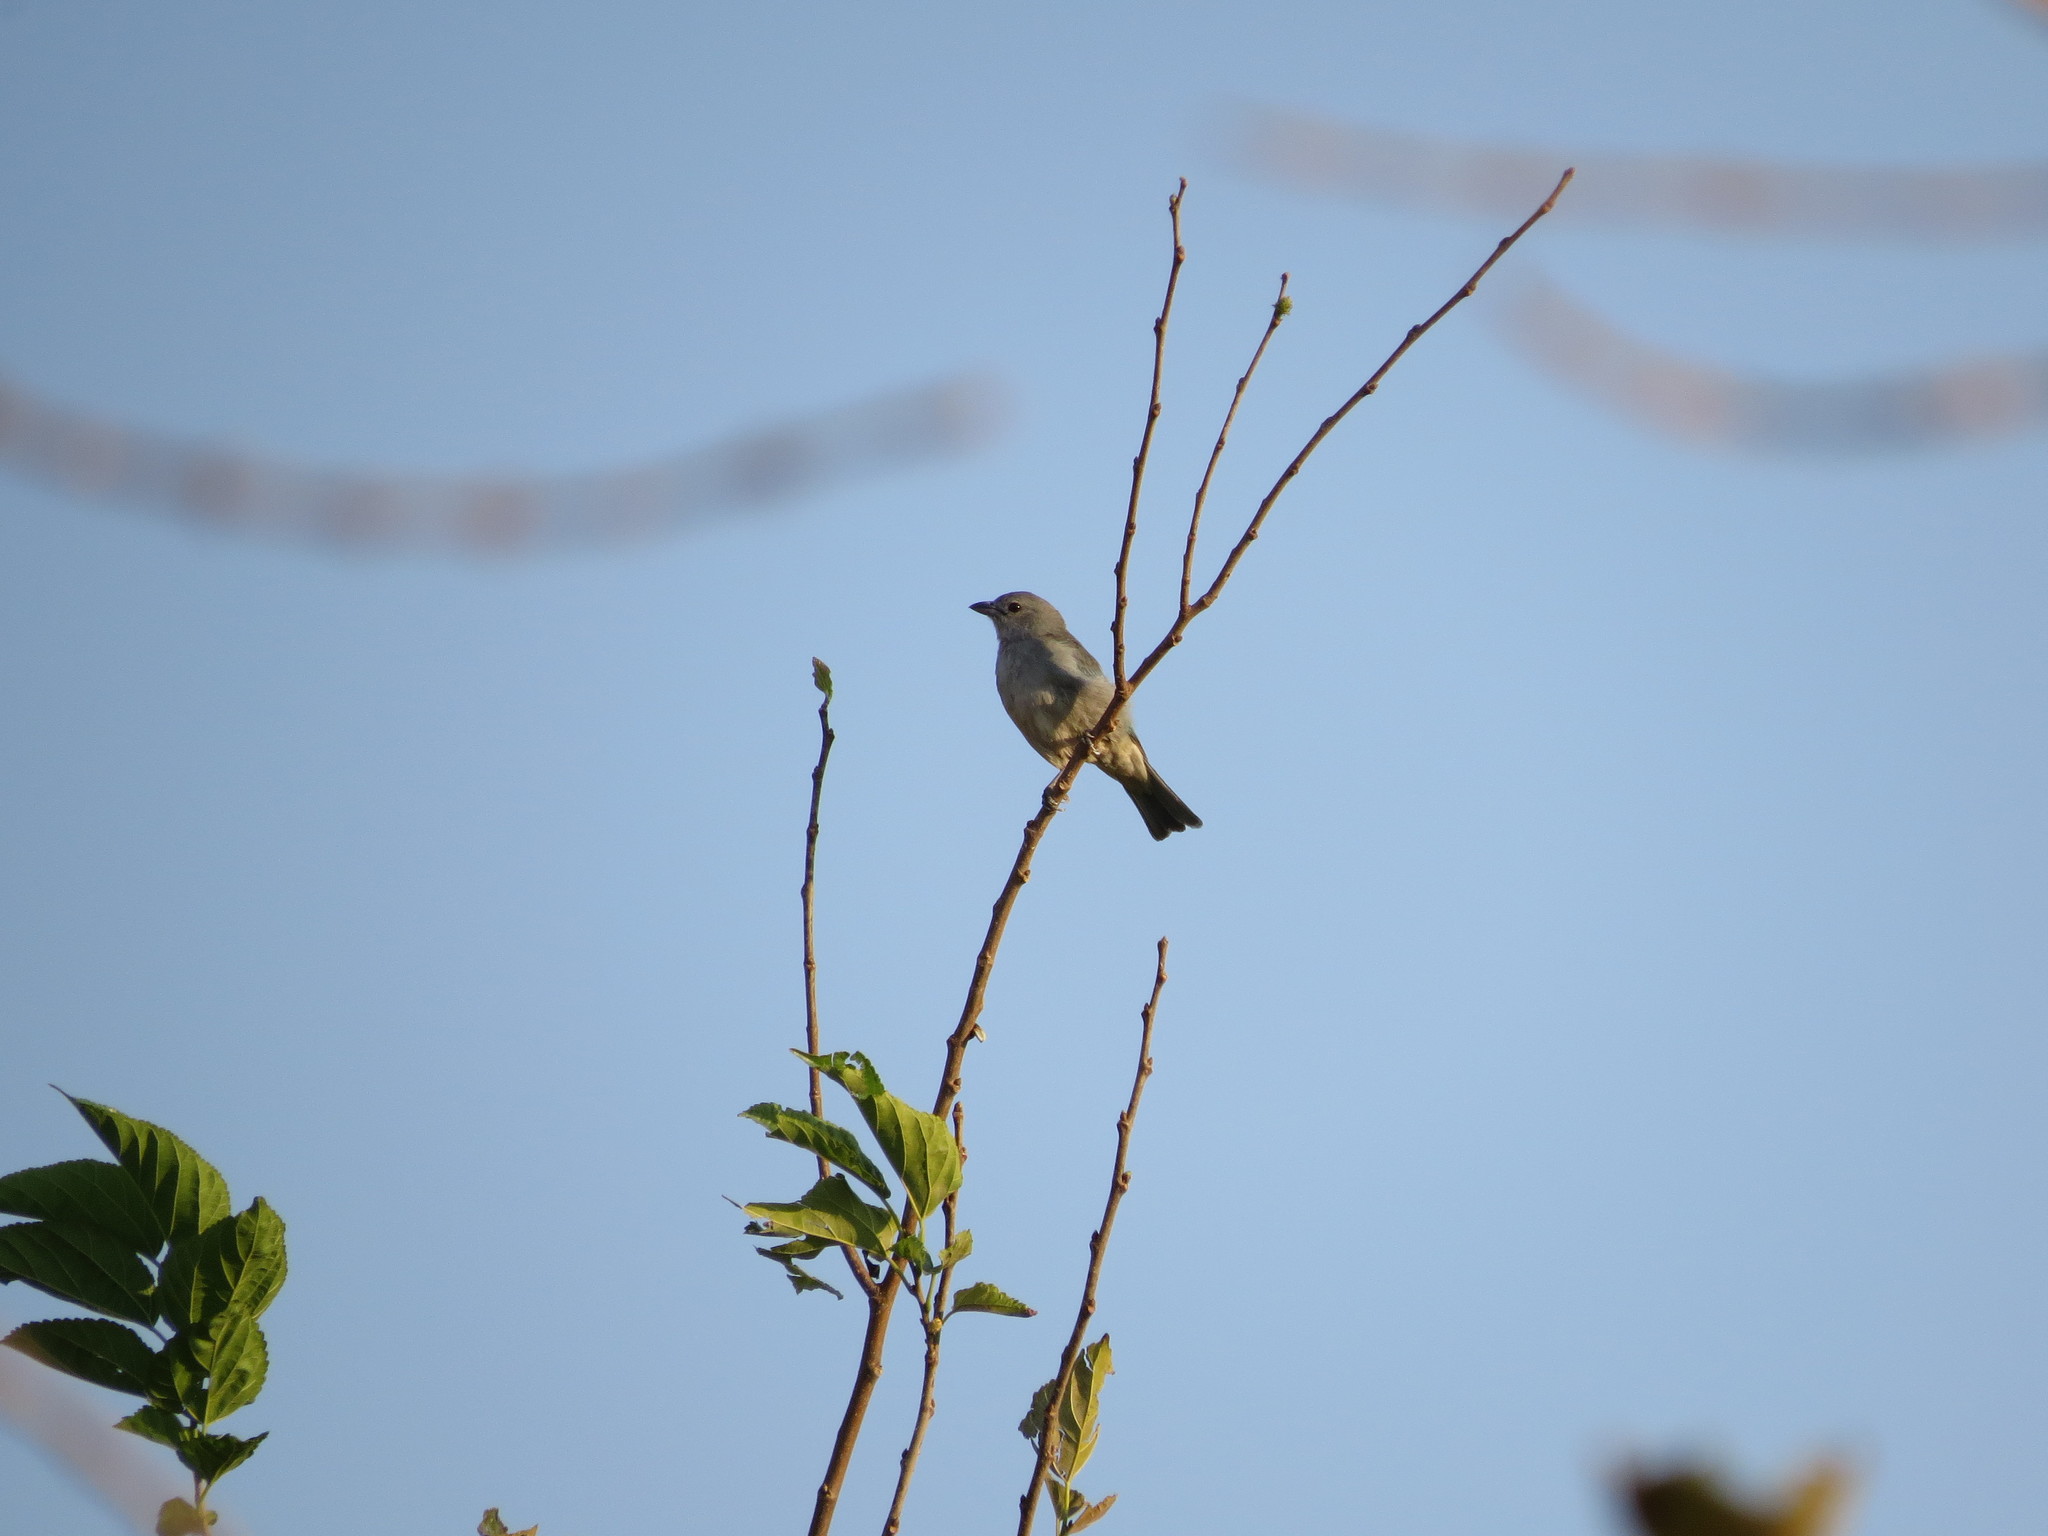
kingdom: Animalia
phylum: Chordata
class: Aves
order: Passeriformes
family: Thraupidae
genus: Thraupis
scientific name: Thraupis sayaca
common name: Sayaca tanager
